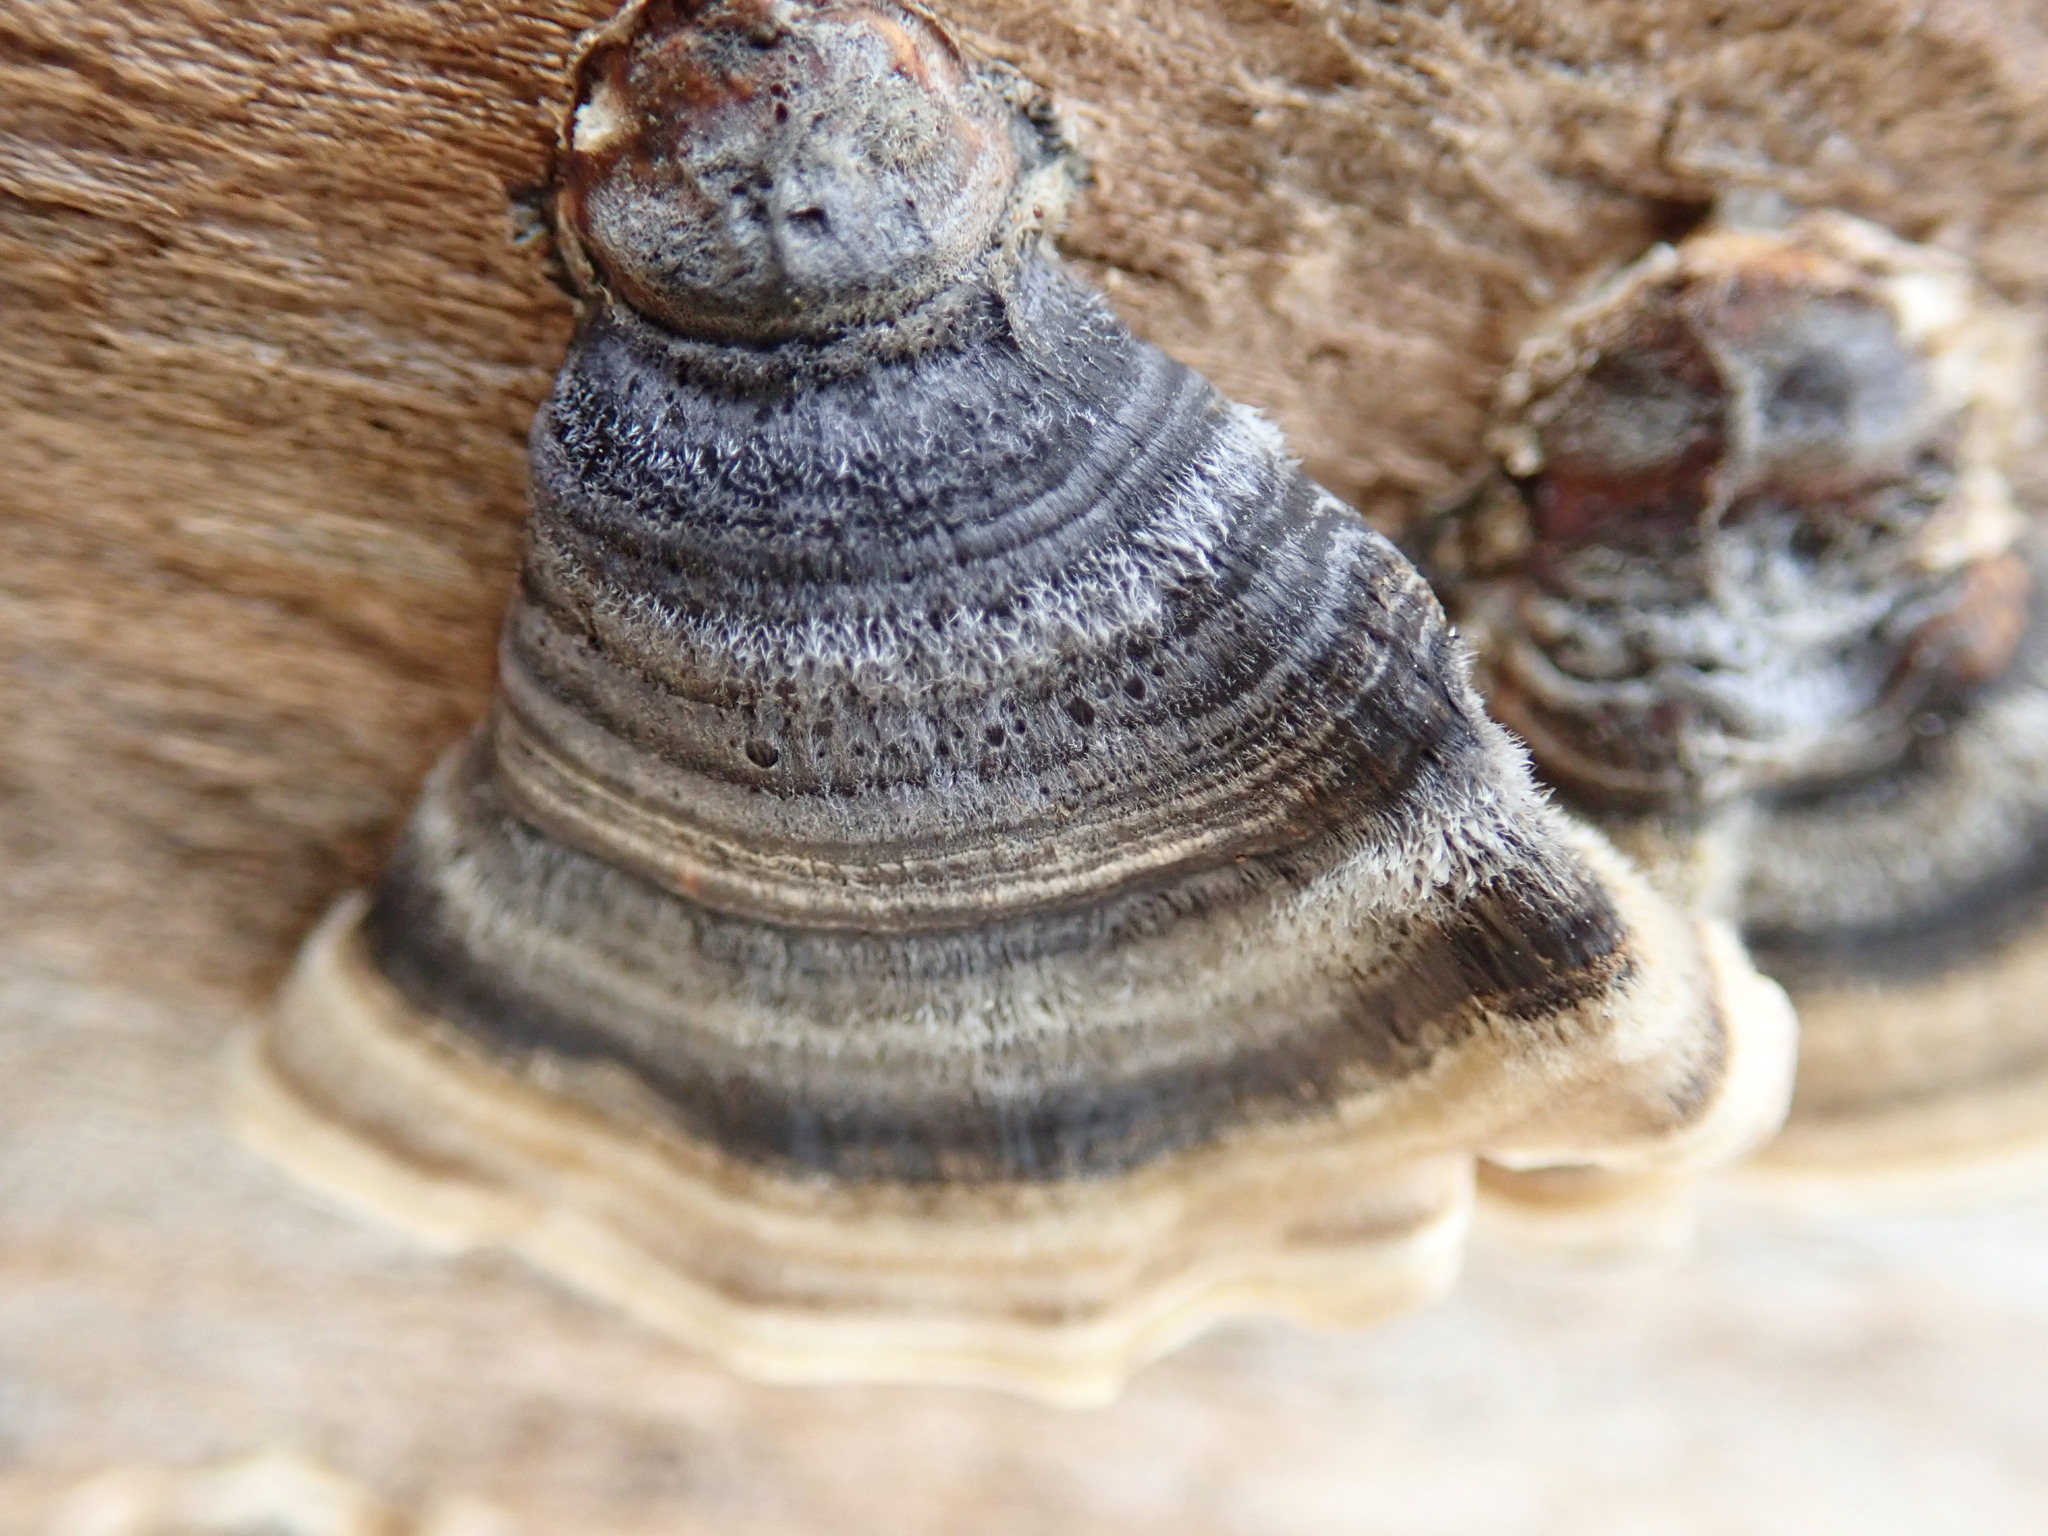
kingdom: Fungi
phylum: Basidiomycota
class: Agaricomycetes
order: Polyporales
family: Polyporaceae
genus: Trametes
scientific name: Trametes versicolor
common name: Turkeytail
